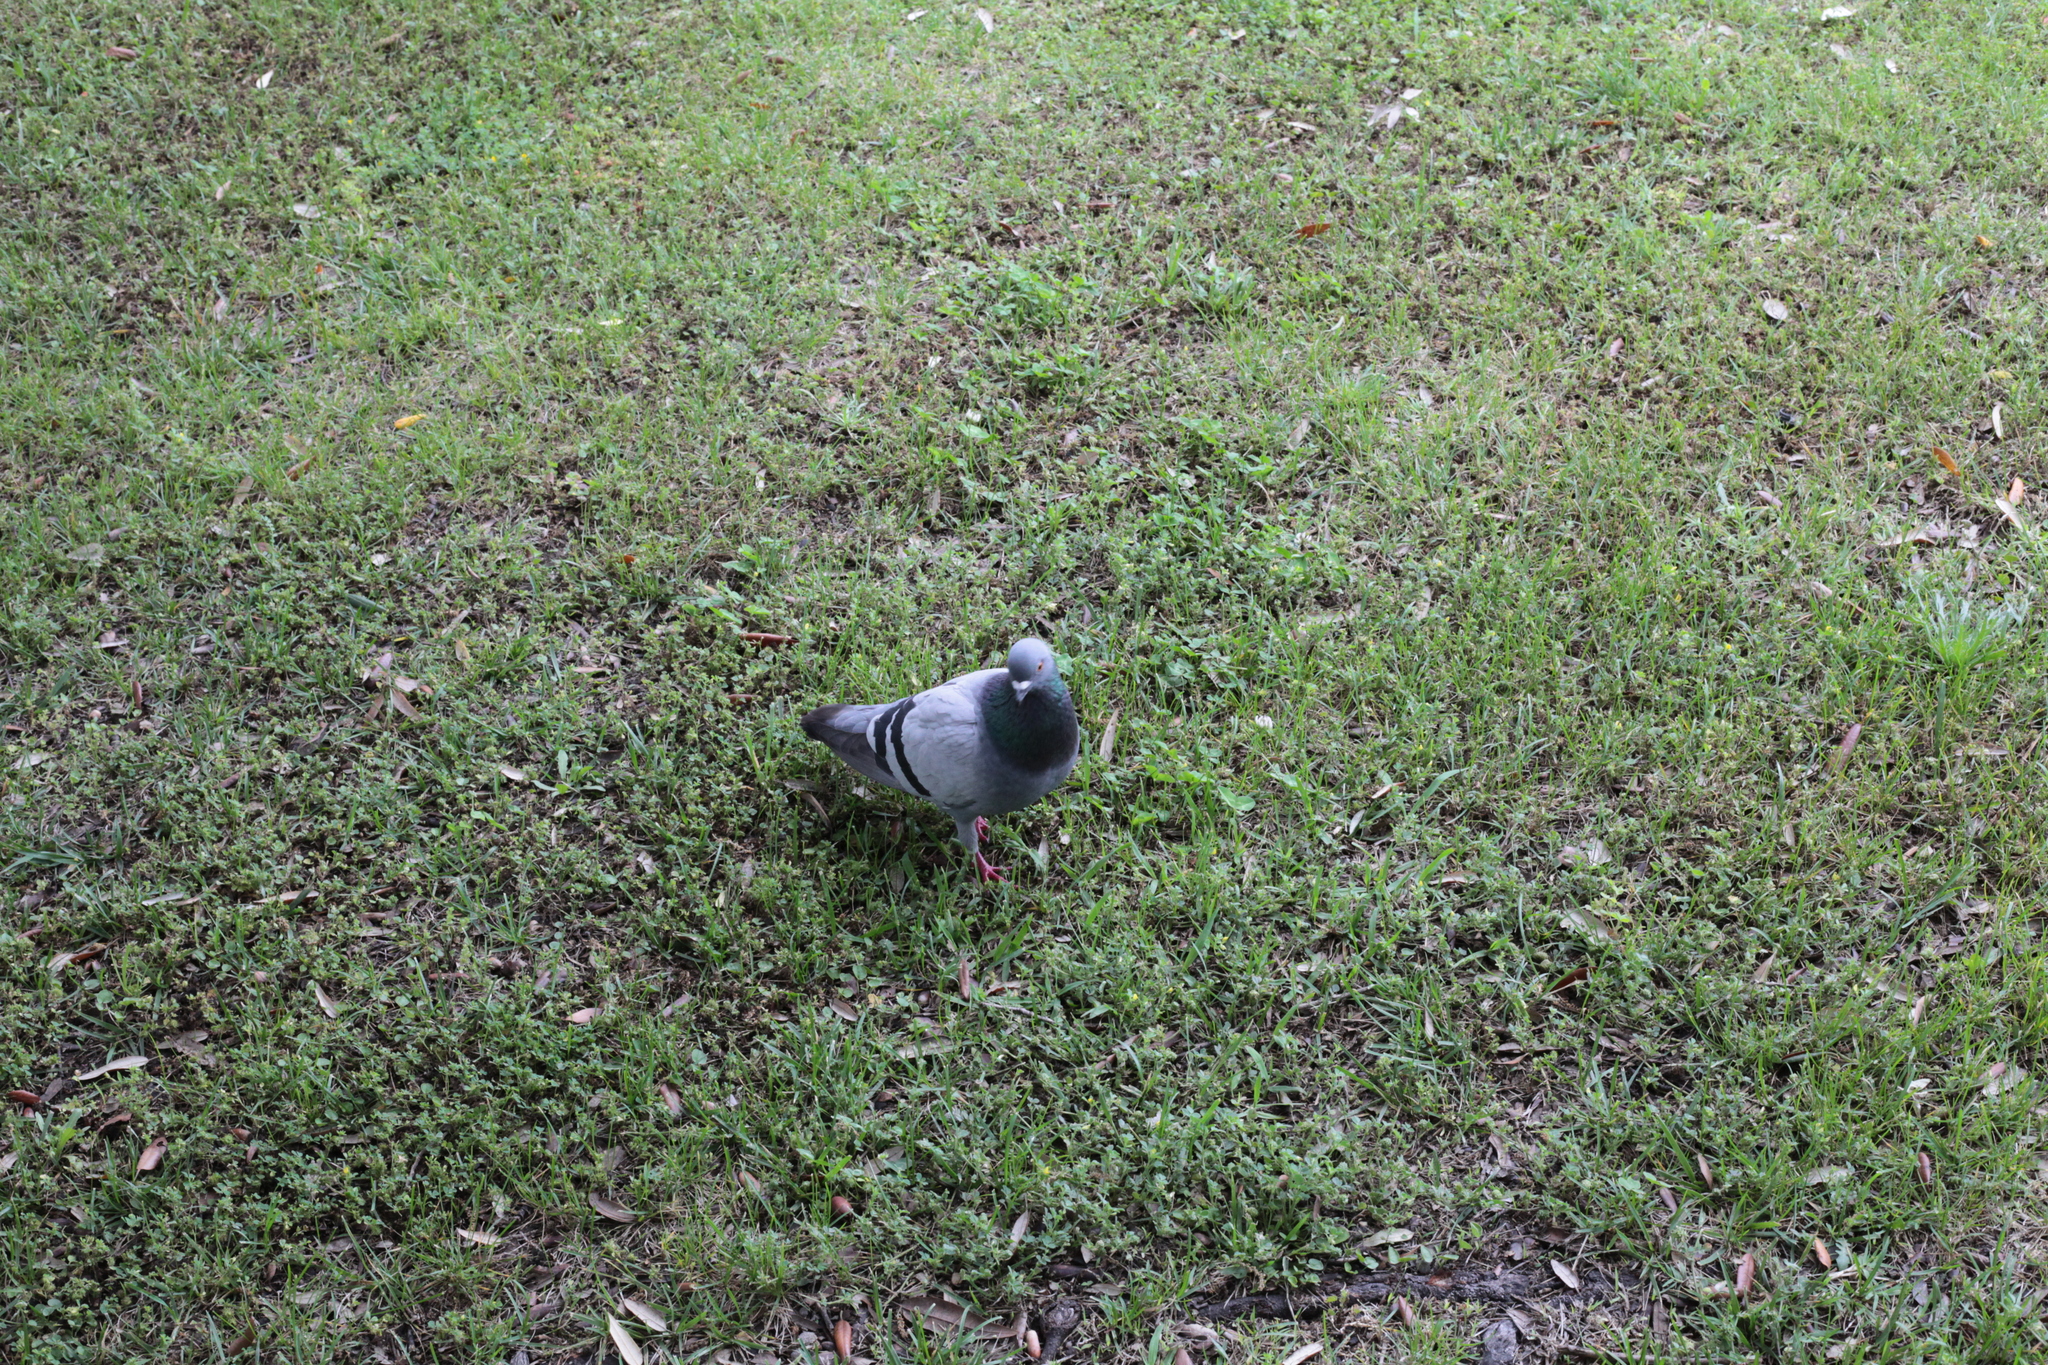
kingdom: Animalia
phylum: Chordata
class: Aves
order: Columbiformes
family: Columbidae
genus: Columba
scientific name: Columba livia
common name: Rock pigeon
